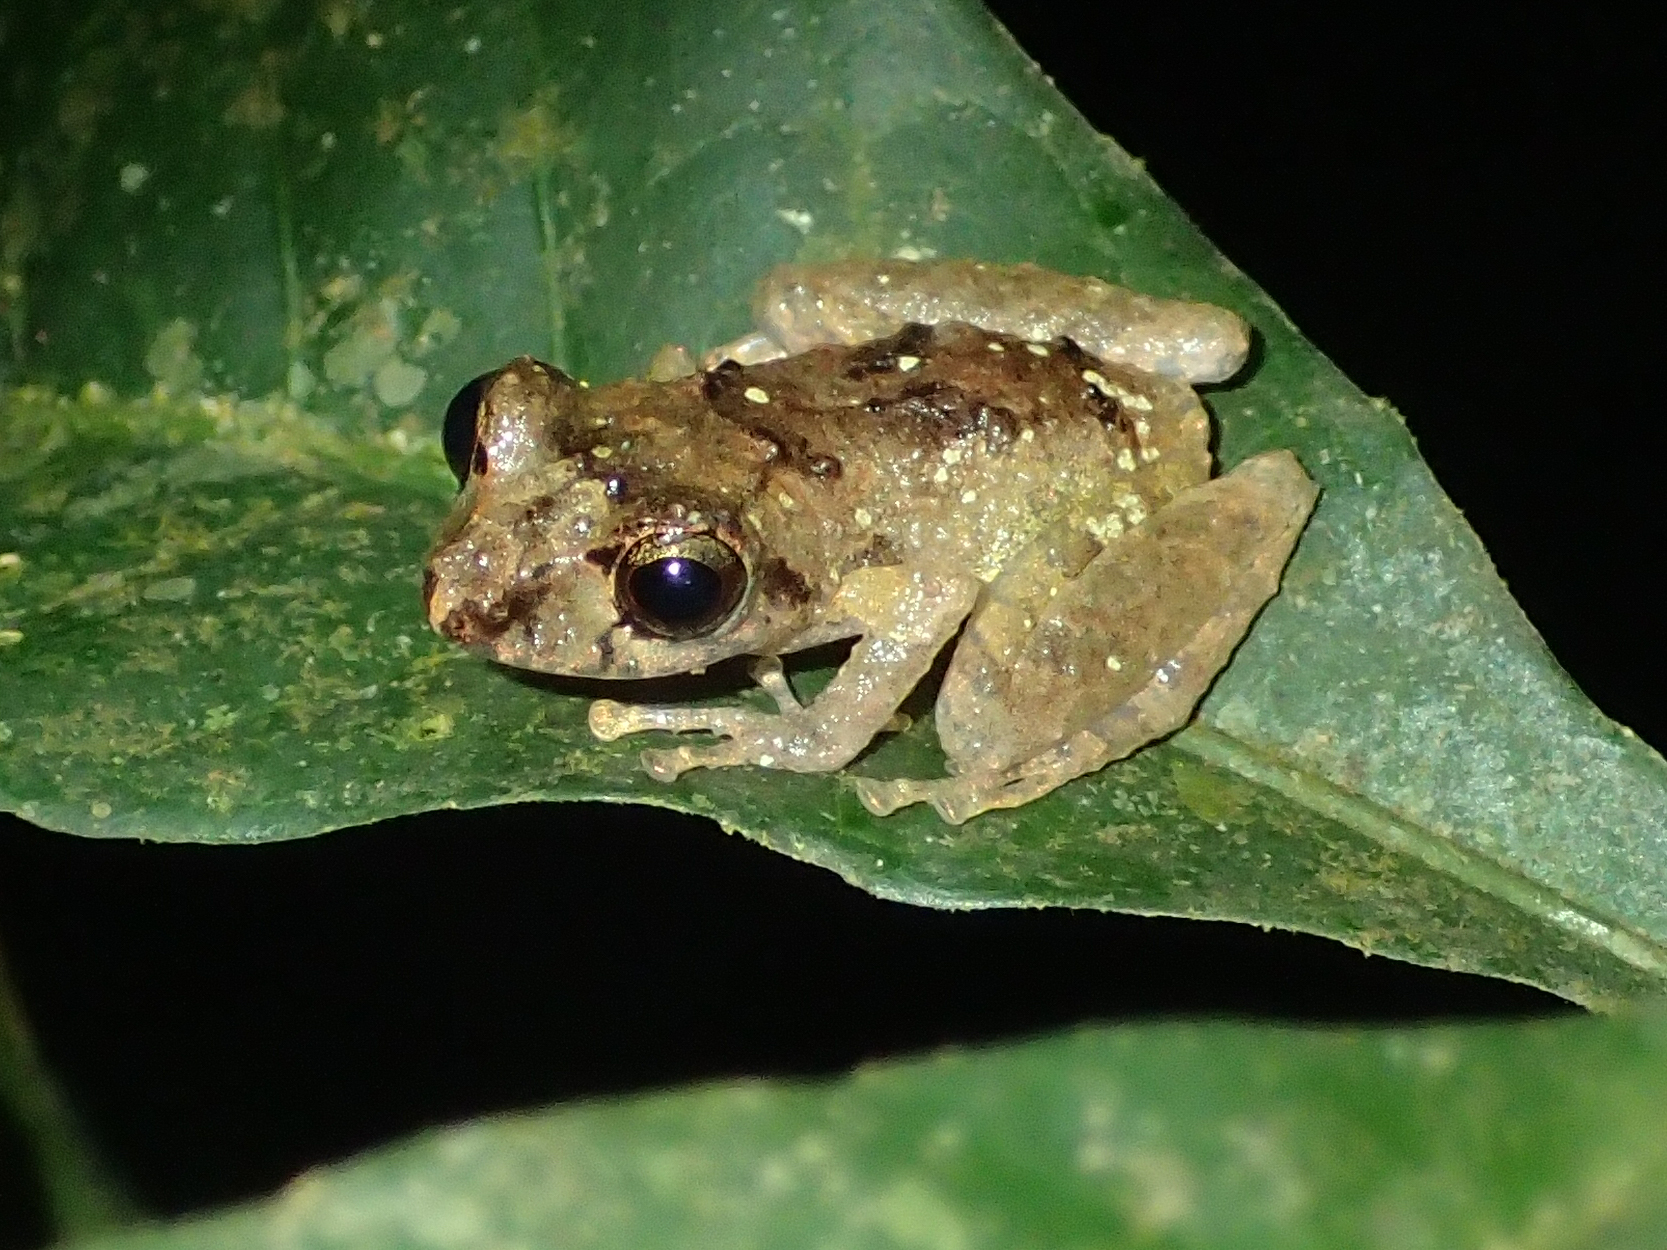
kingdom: Animalia
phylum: Chordata
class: Amphibia
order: Anura
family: Craugastoridae
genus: Pristimantis
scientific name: Pristimantis luscombei
